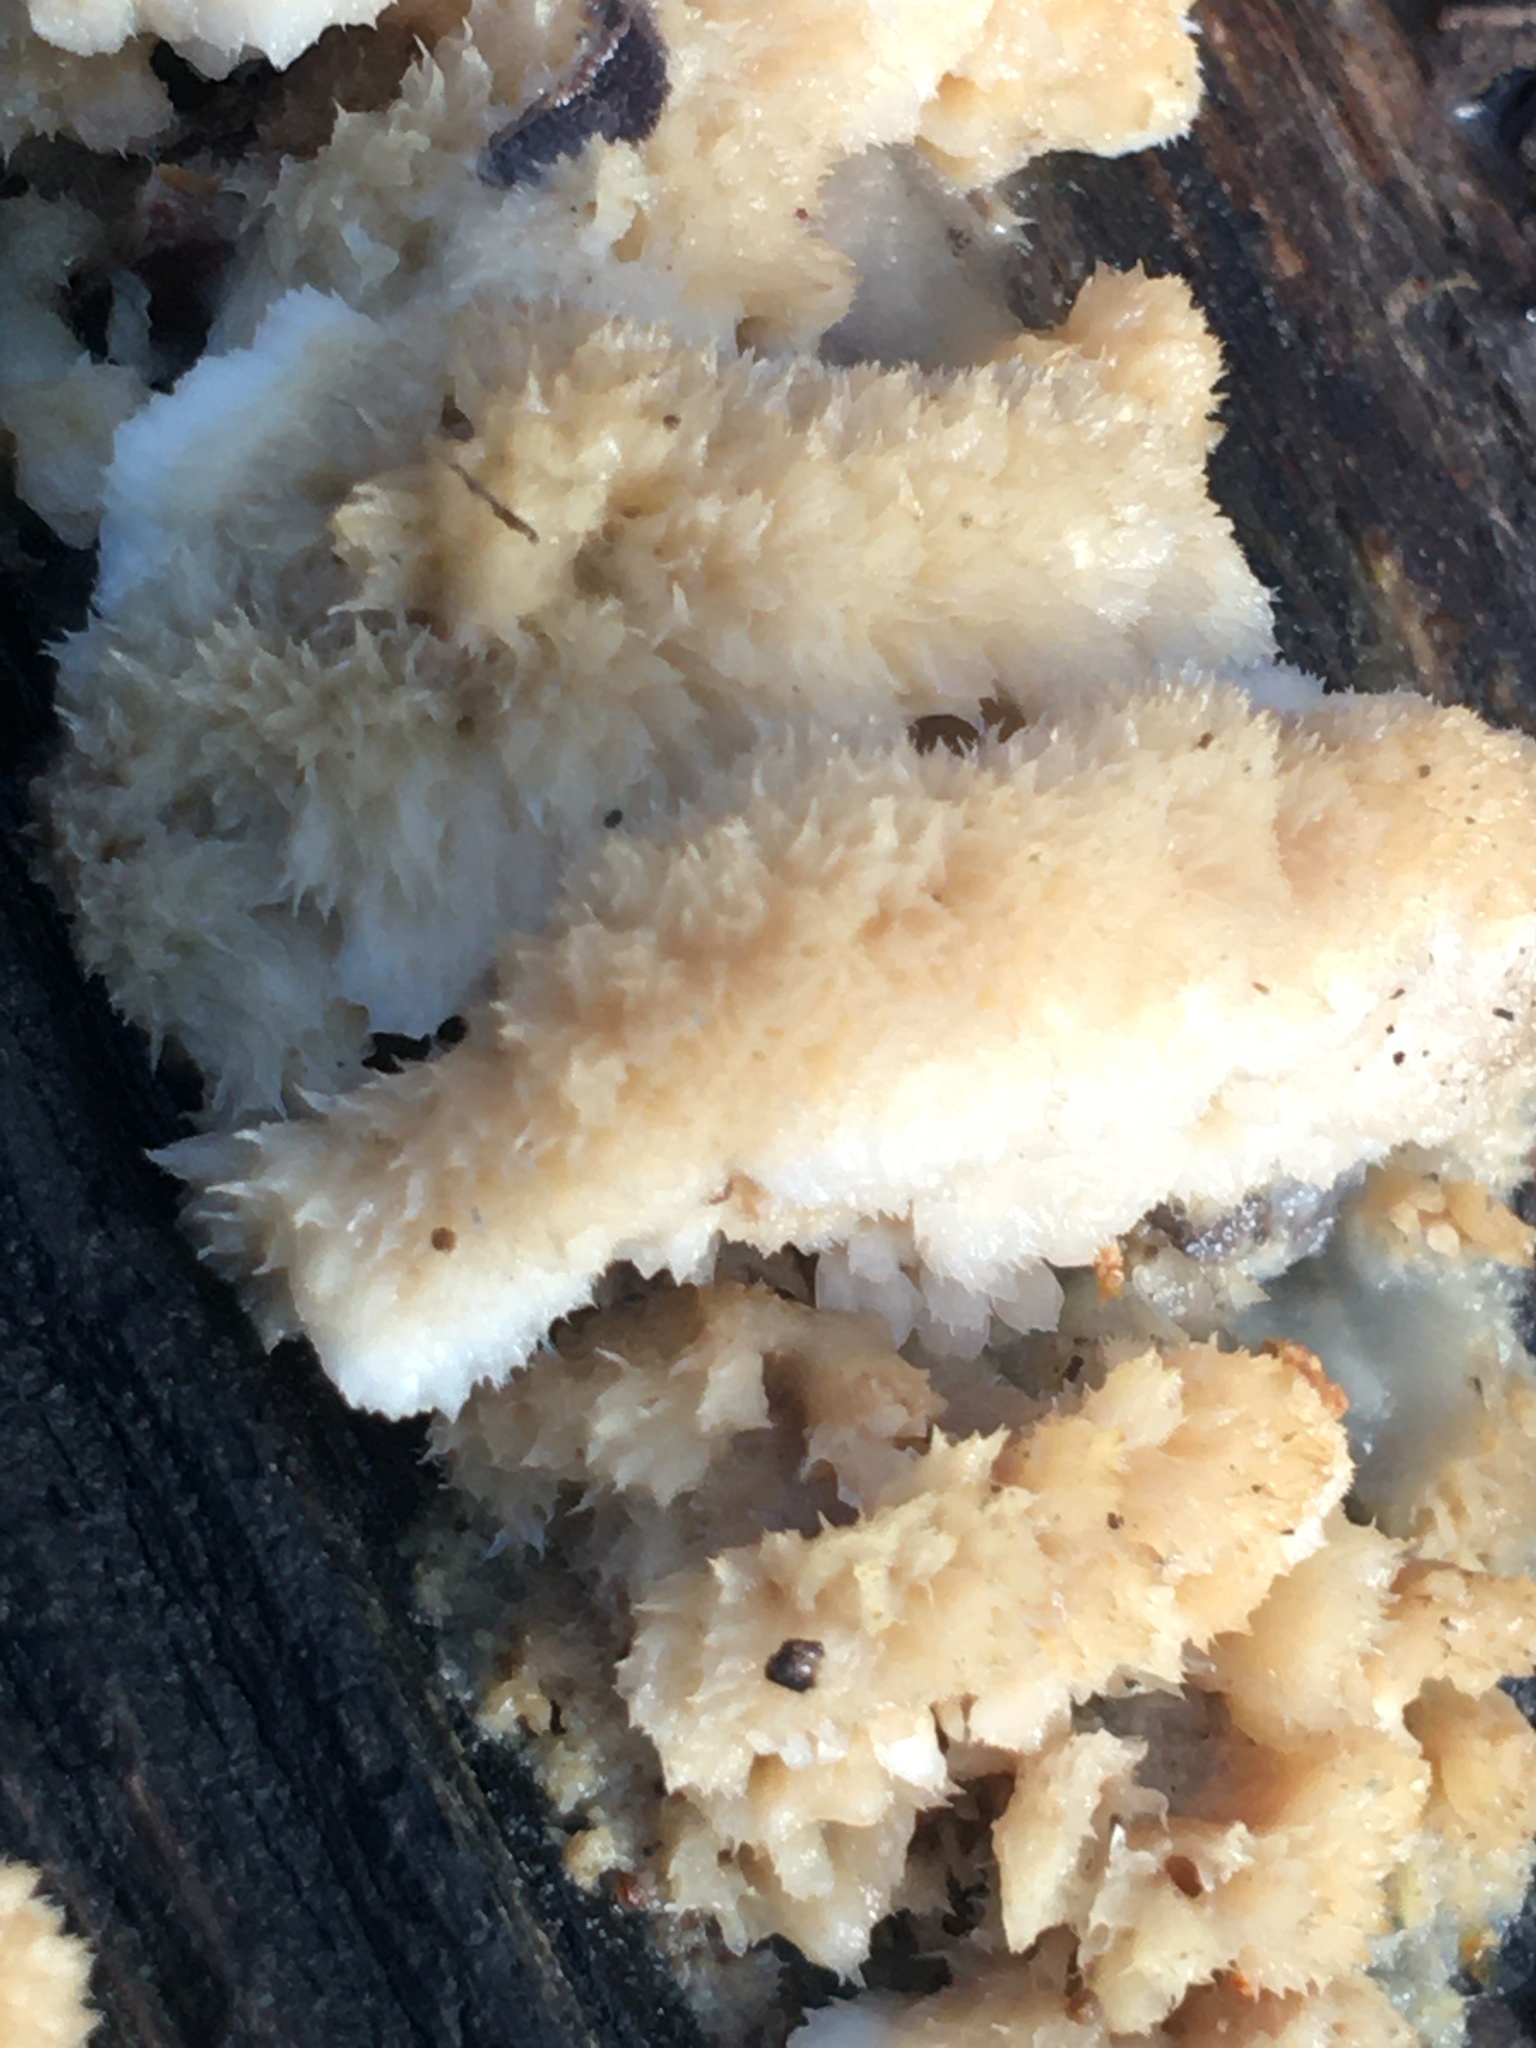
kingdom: Fungi
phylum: Basidiomycota
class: Agaricomycetes
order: Polyporales
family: Dacryobolaceae
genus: Postia
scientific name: Postia ptychogaster
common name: Powderpuff bracket
